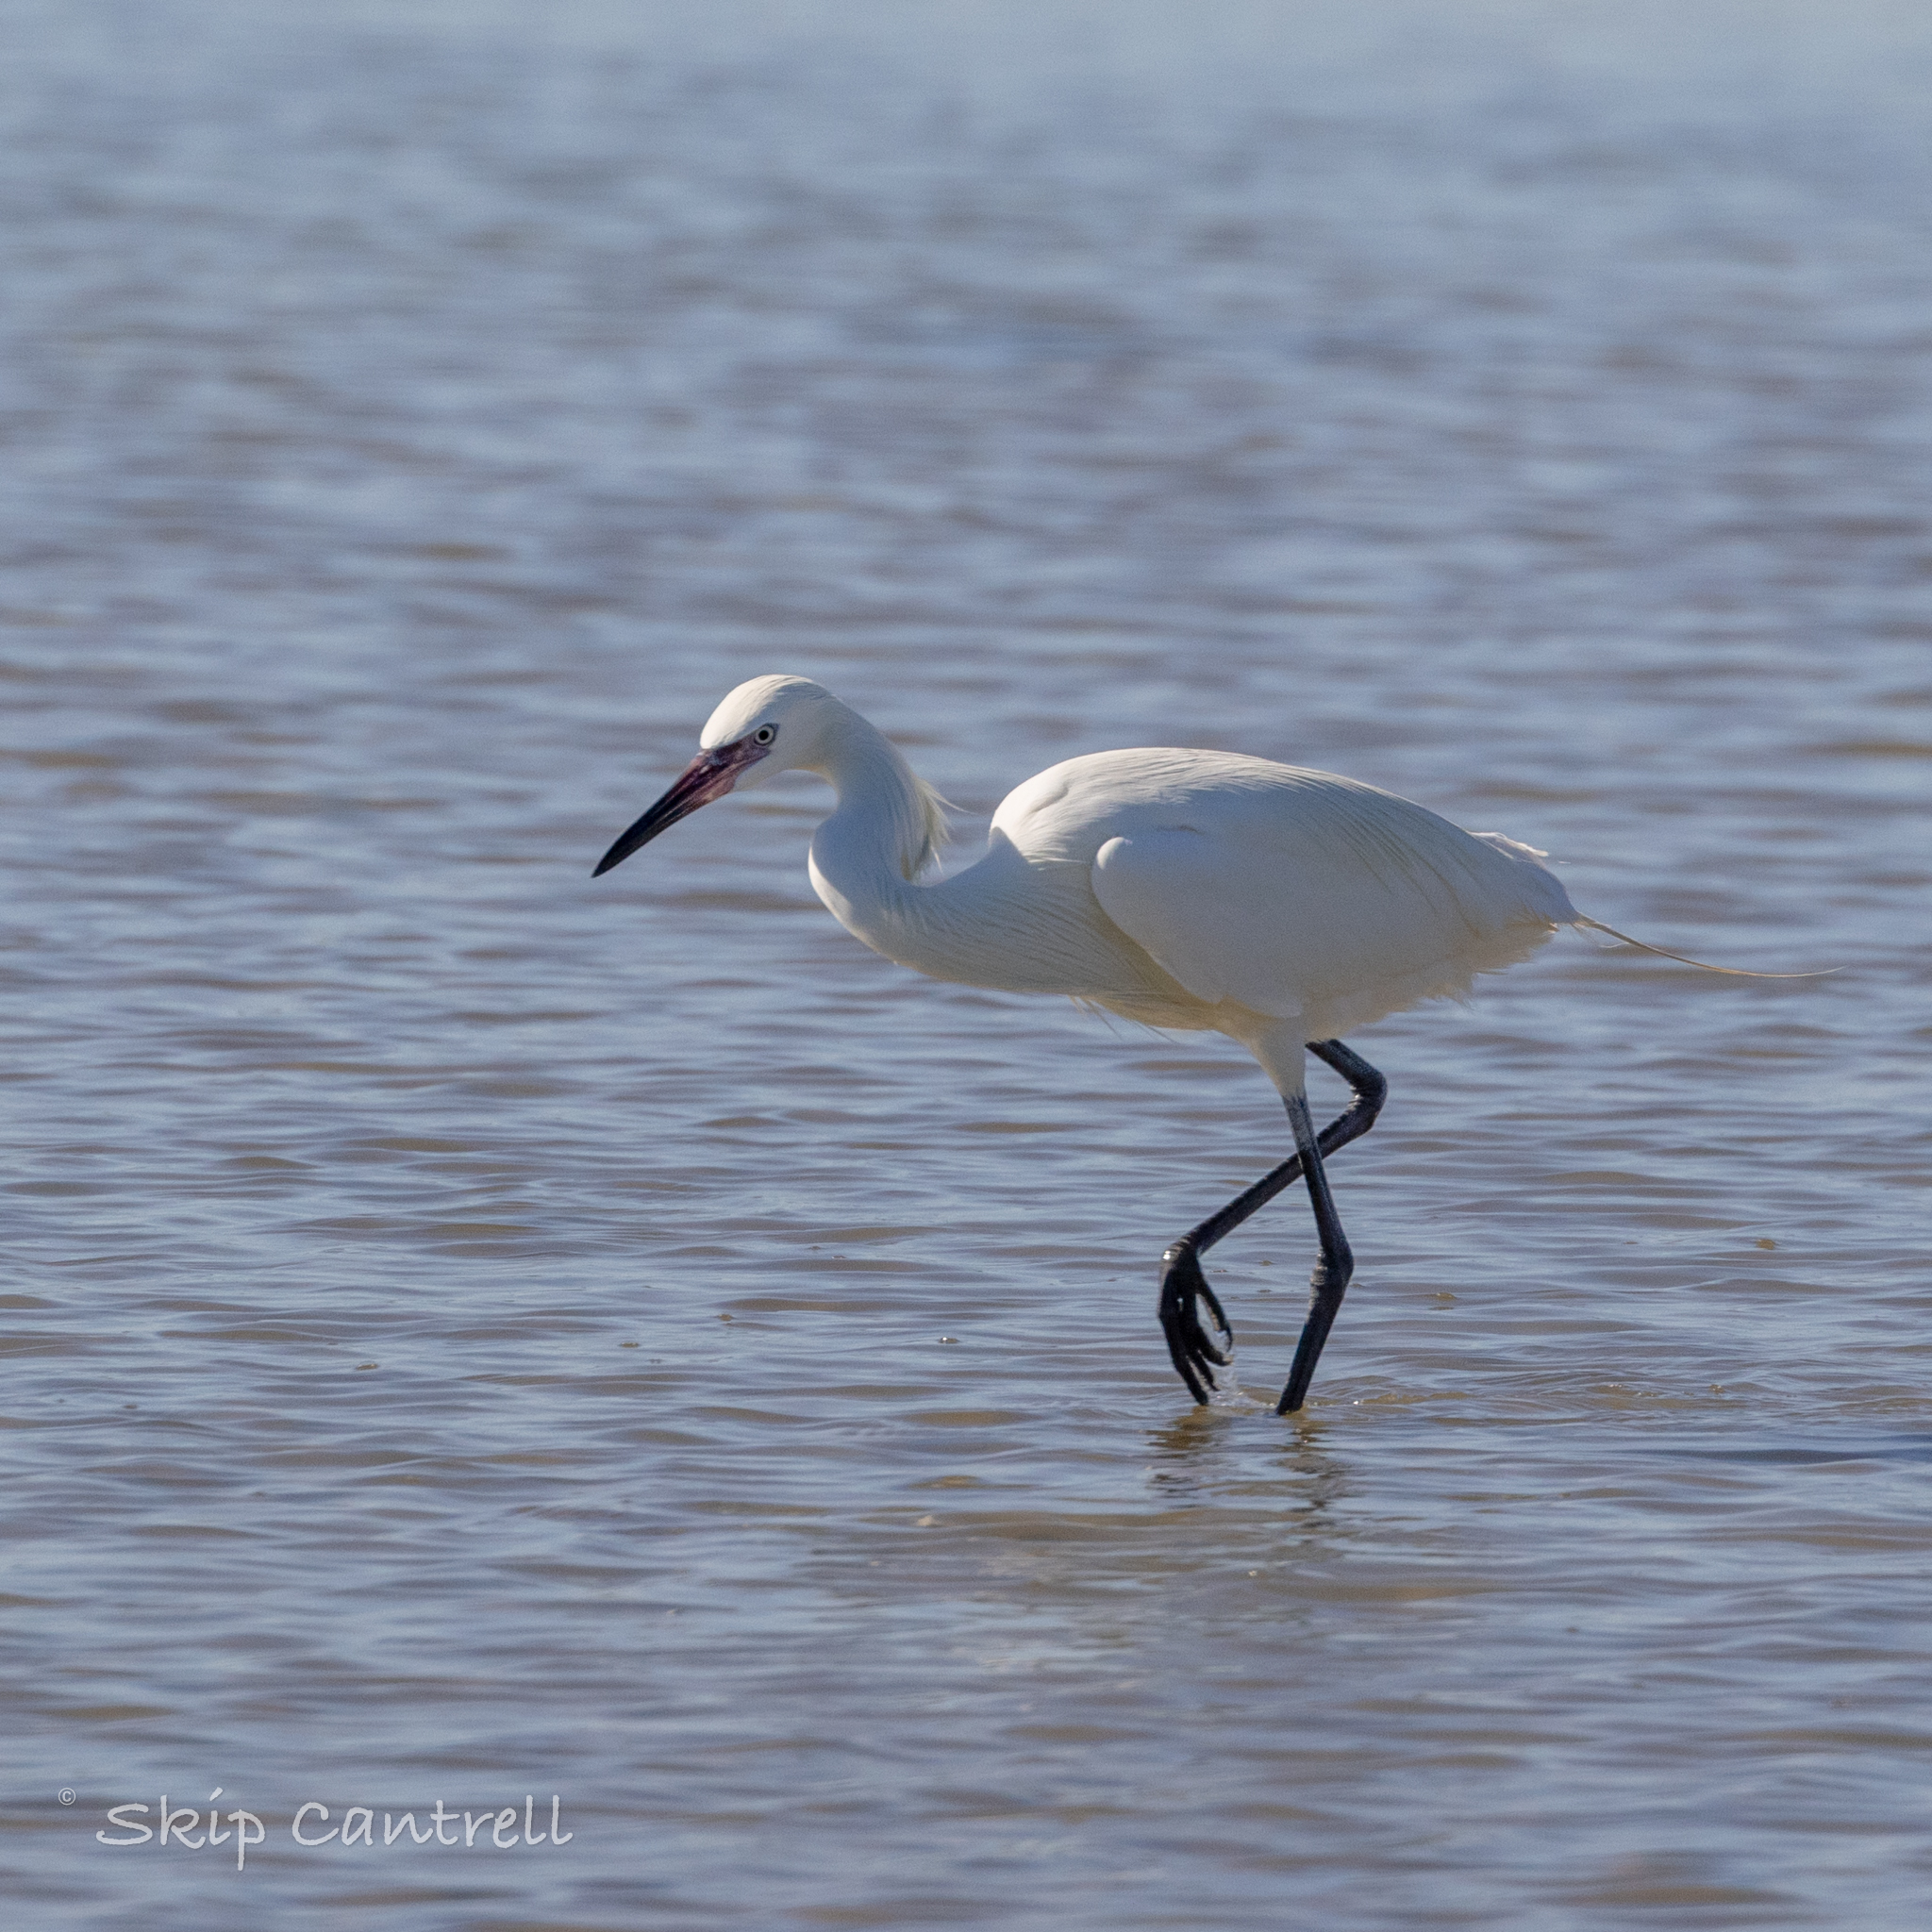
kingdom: Animalia
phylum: Chordata
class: Aves
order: Pelecaniformes
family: Ardeidae
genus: Egretta
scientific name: Egretta rufescens
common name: Reddish egret
